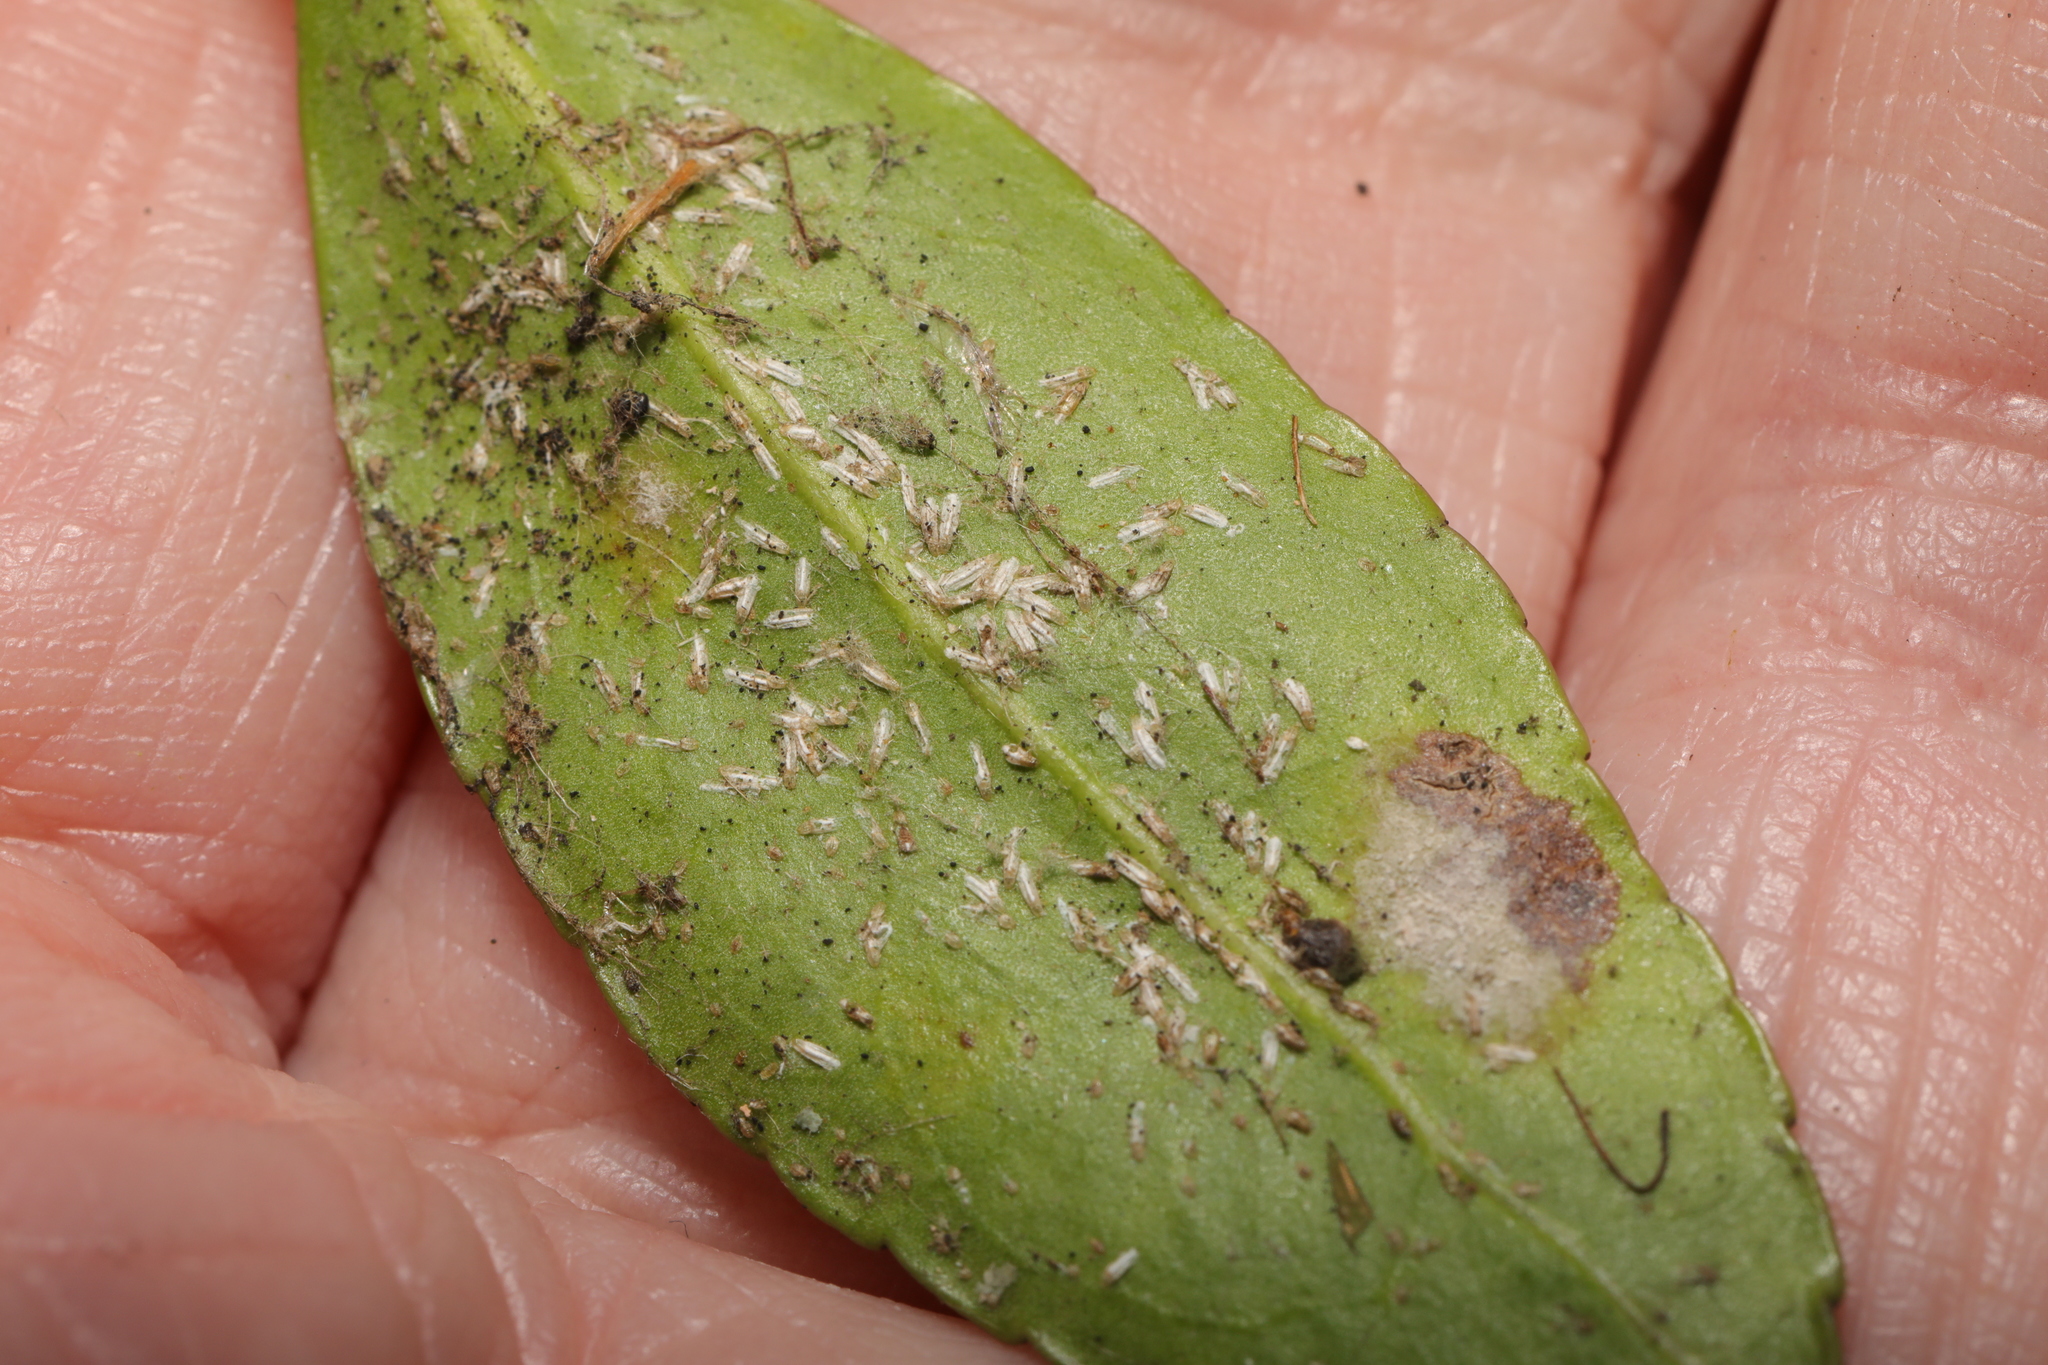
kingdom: Animalia
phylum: Arthropoda
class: Insecta
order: Hemiptera
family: Diaspididae
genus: Unaspis
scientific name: Unaspis euonymi
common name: Euonymus scale
